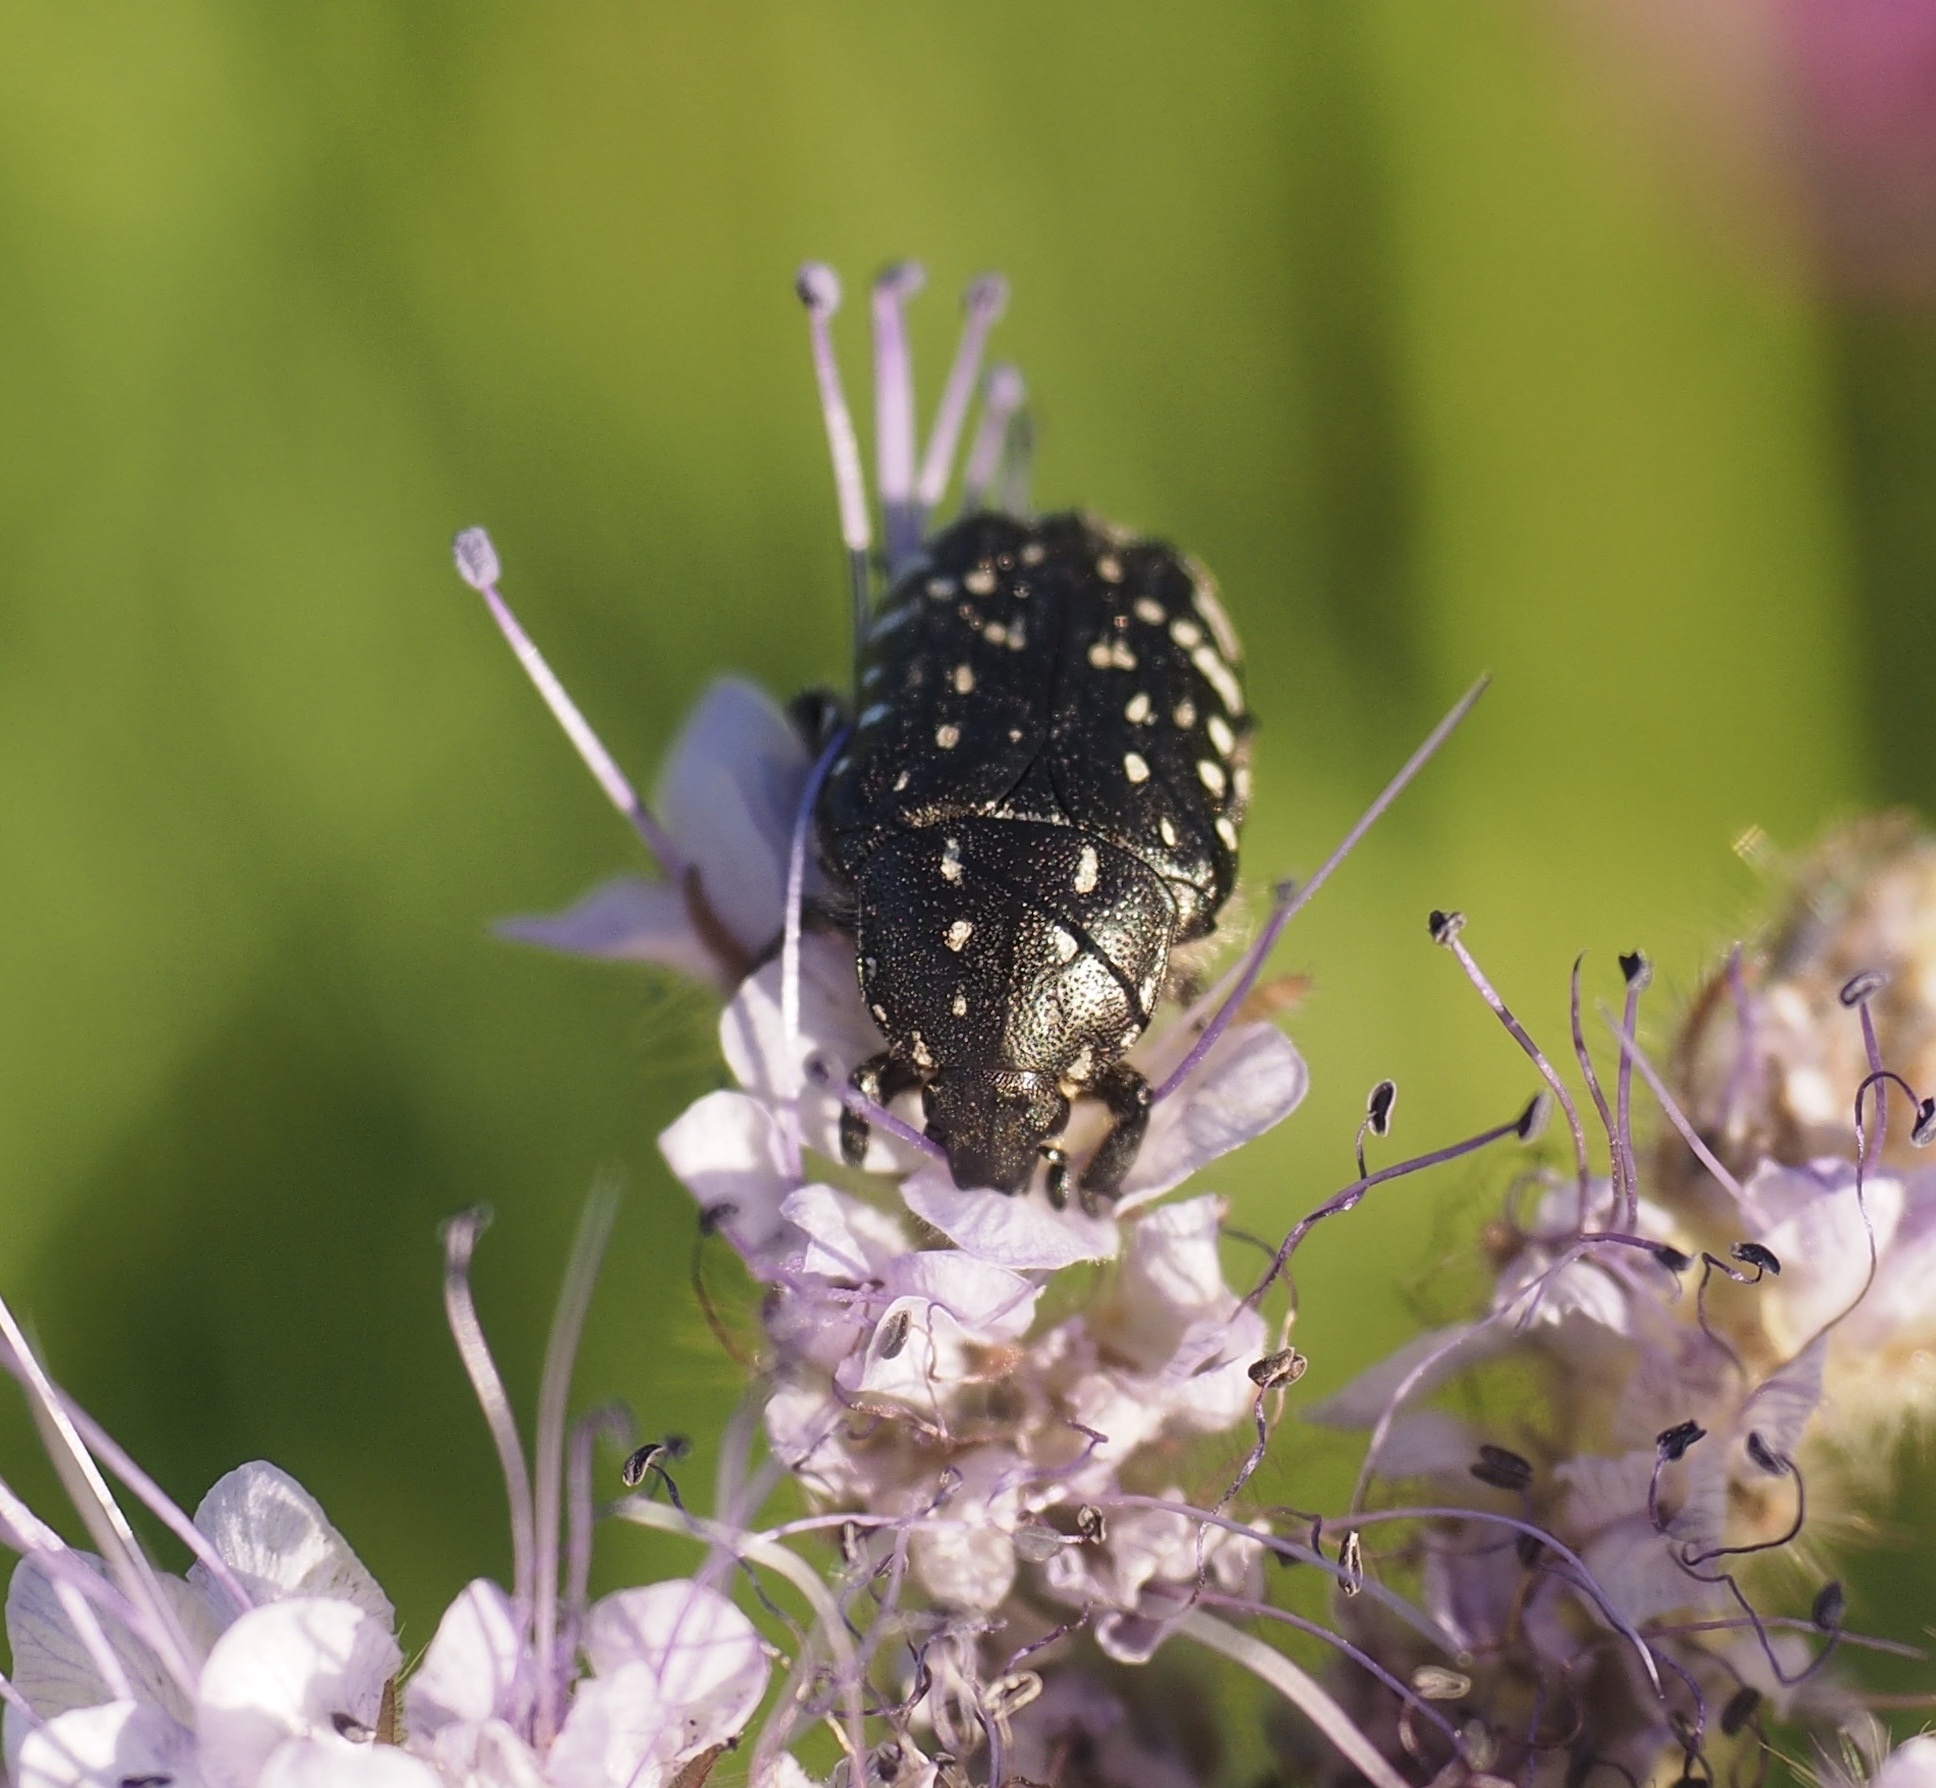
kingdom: Animalia
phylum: Arthropoda
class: Insecta
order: Coleoptera
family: Scarabaeidae
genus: Oxythyrea
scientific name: Oxythyrea funesta
